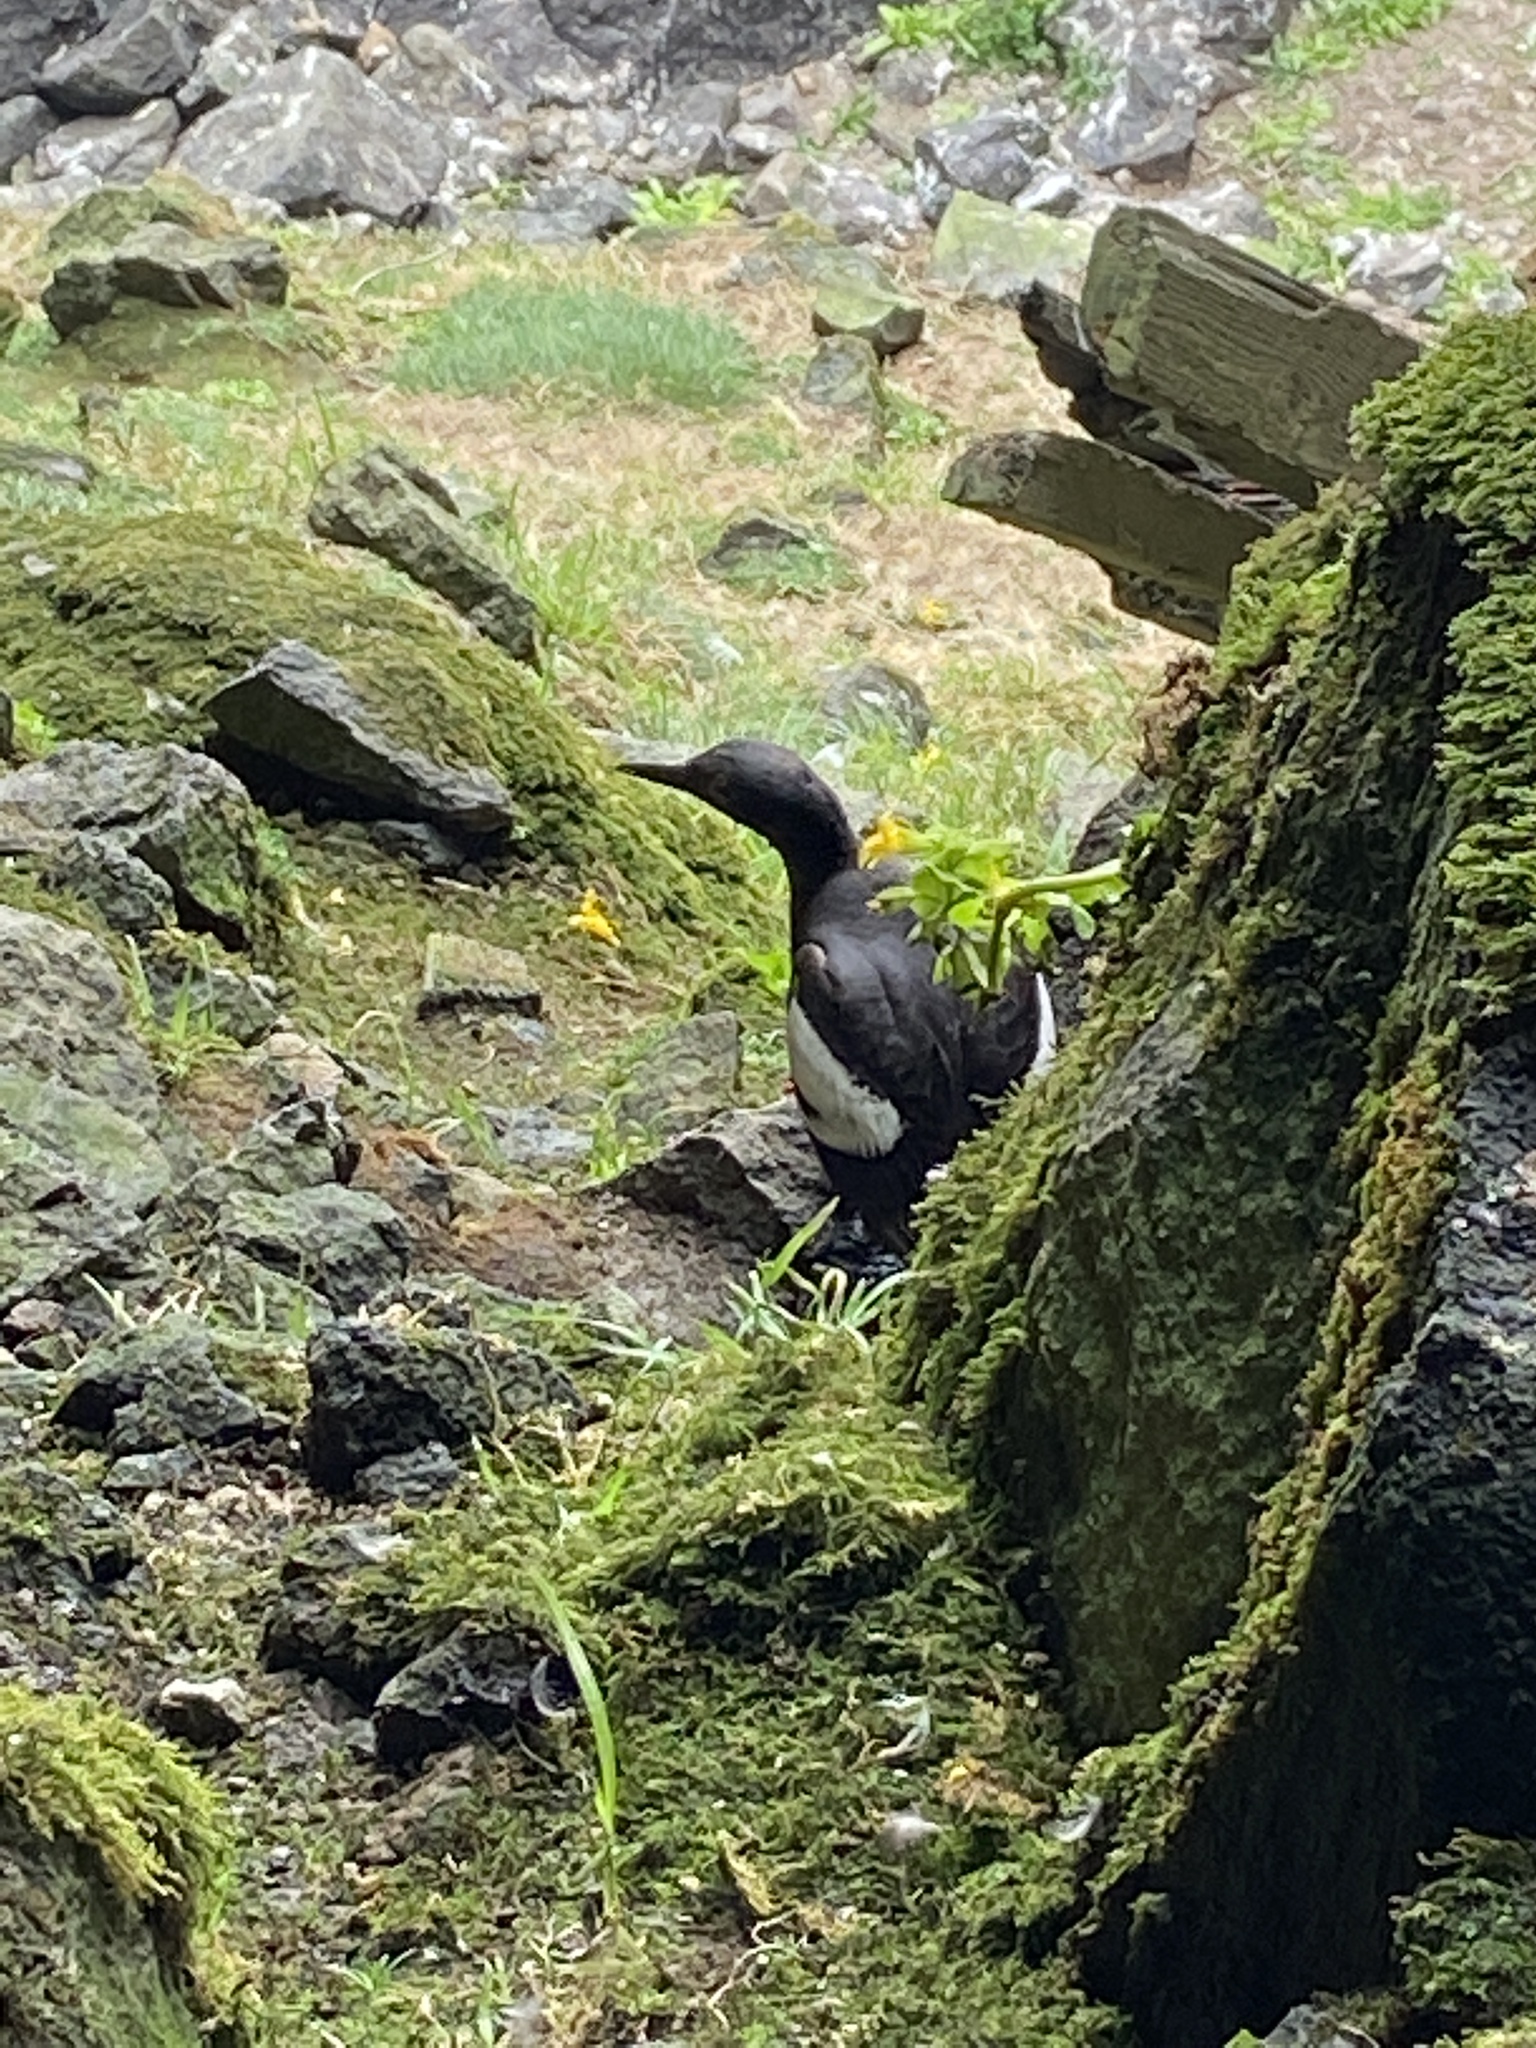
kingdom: Animalia
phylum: Chordata
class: Aves
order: Charadriiformes
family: Alcidae
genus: Cepphus
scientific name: Cepphus columba
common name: Pigeon guillemot
